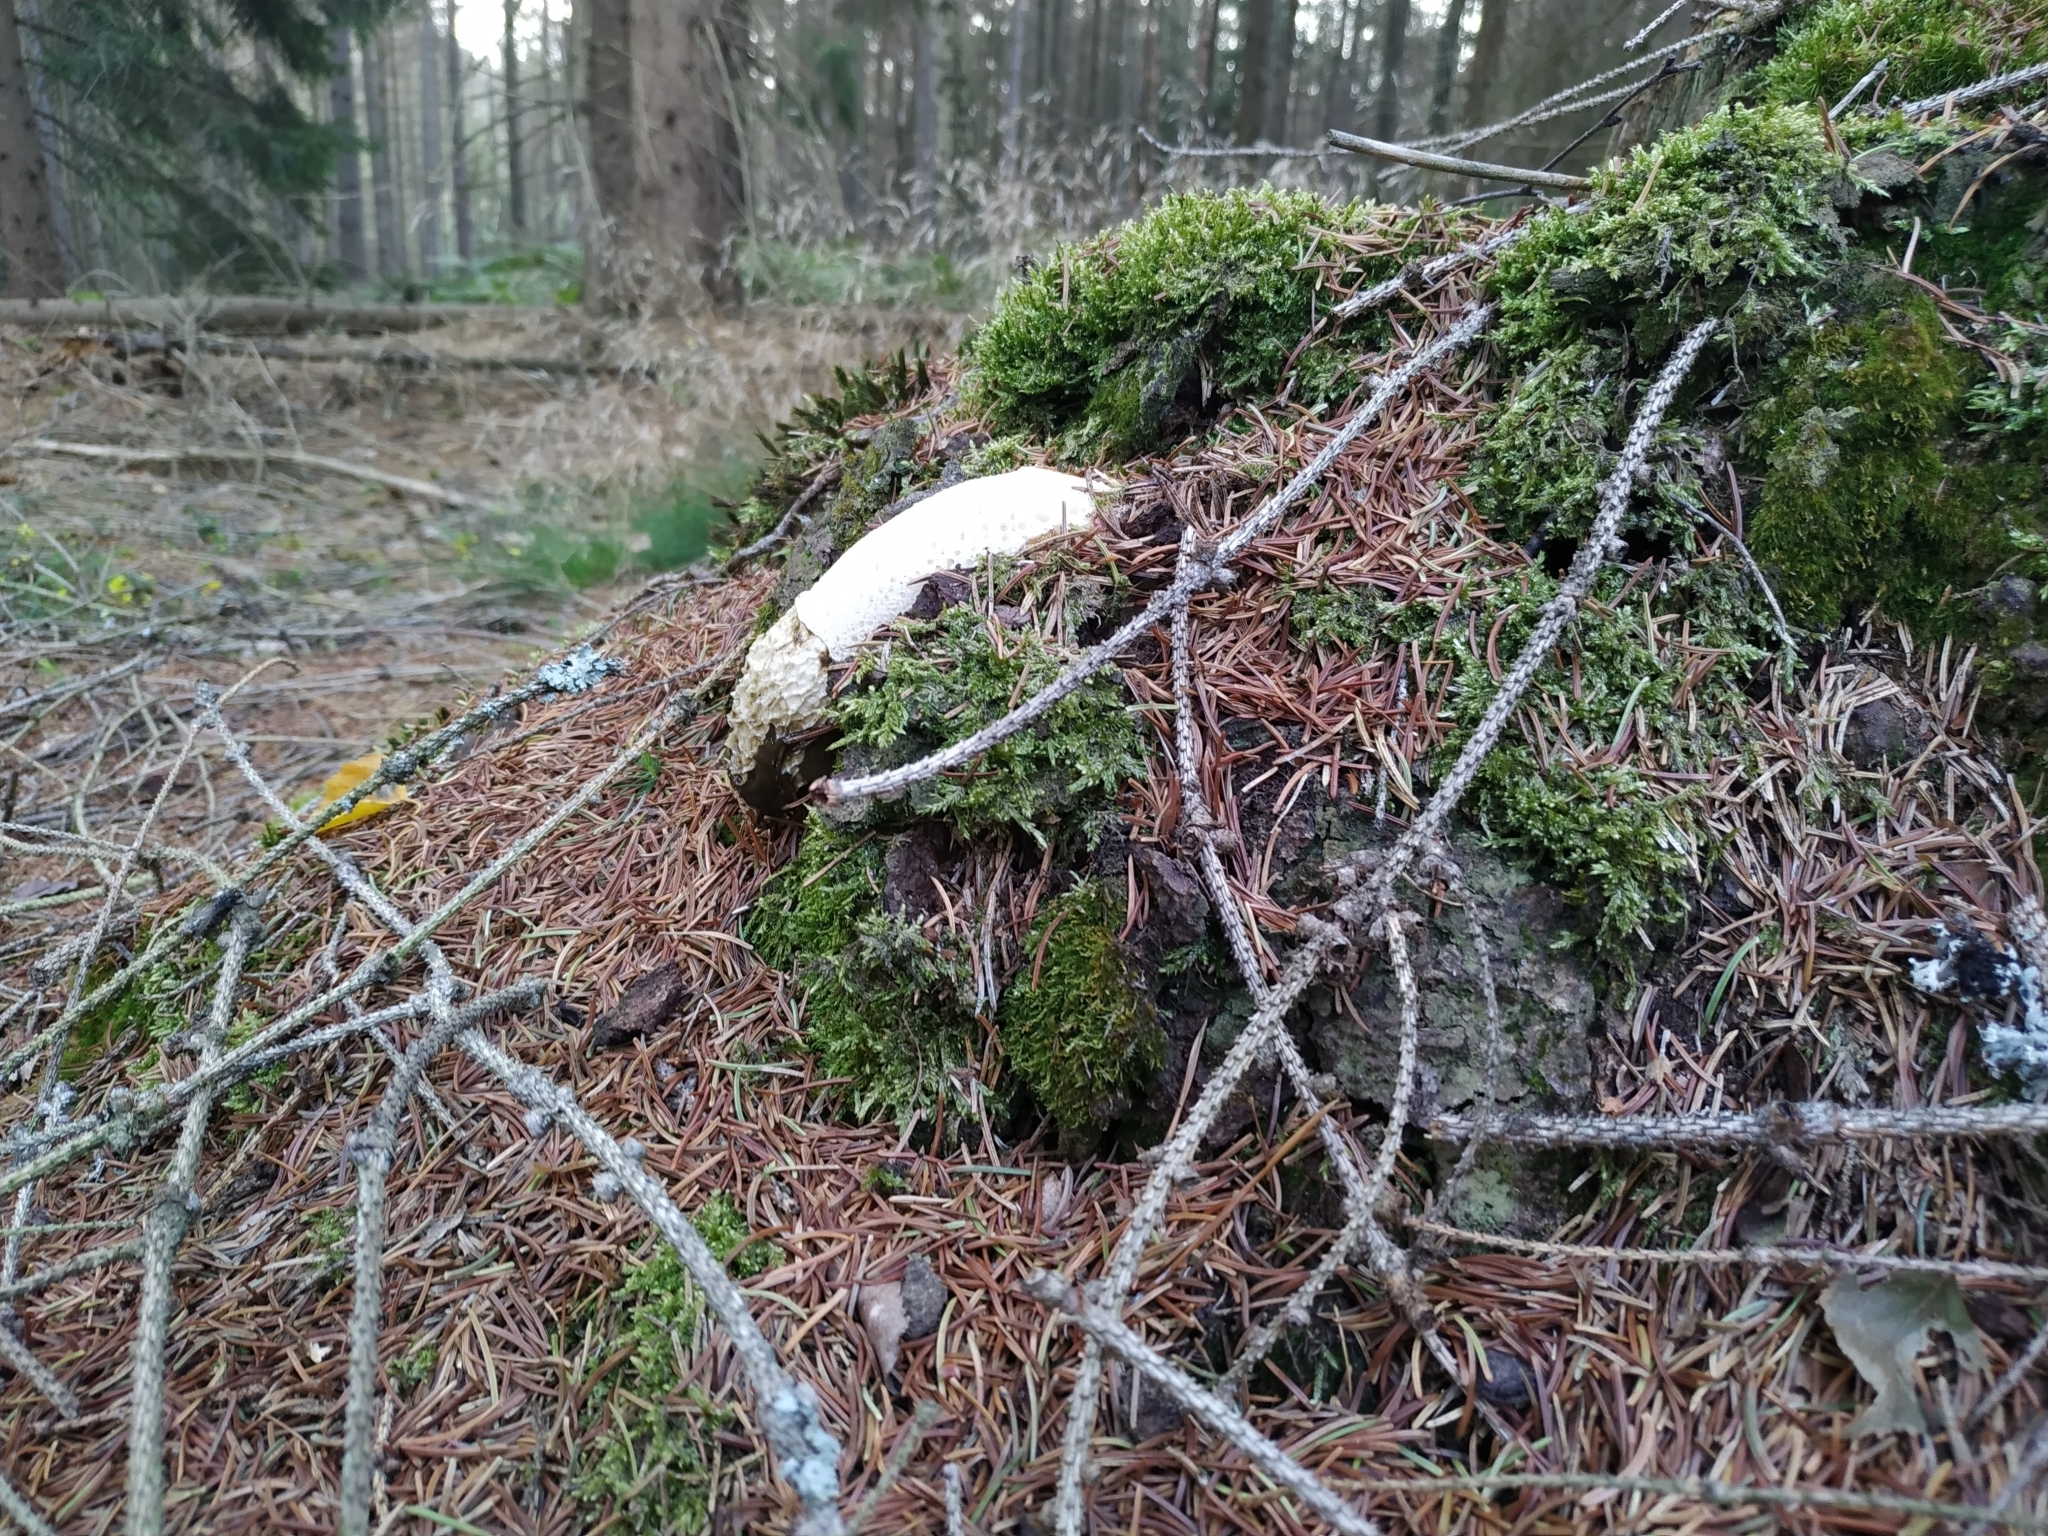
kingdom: Fungi
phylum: Basidiomycota
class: Agaricomycetes
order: Phallales
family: Phallaceae
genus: Phallus
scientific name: Phallus impudicus
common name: Common stinkhorn
